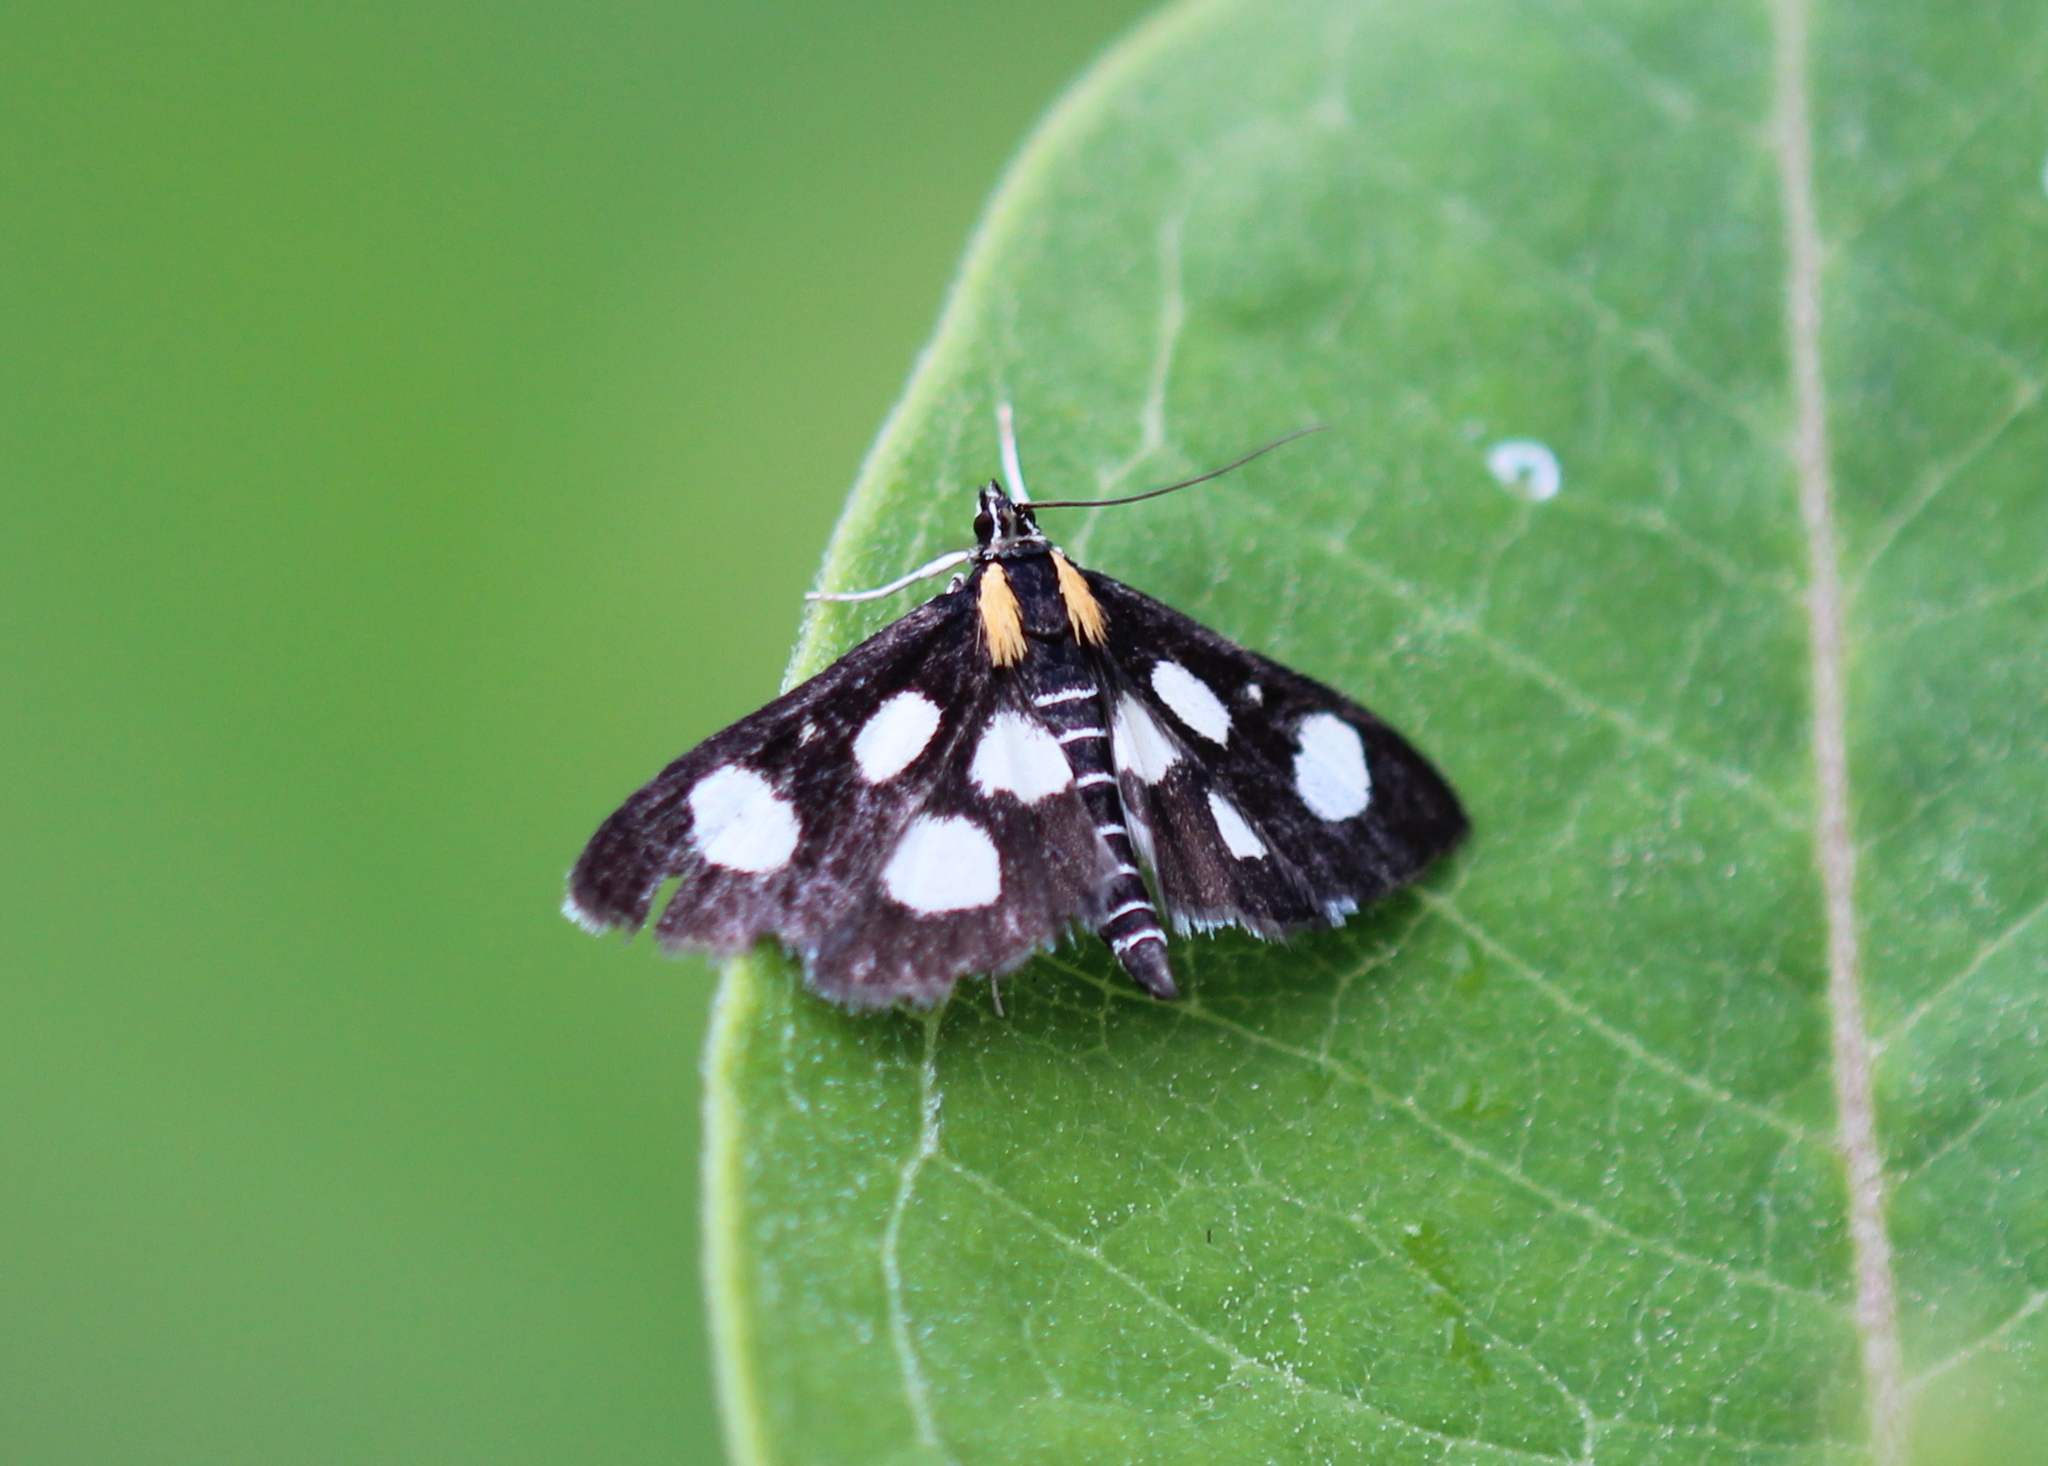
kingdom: Animalia
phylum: Arthropoda
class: Insecta
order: Lepidoptera
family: Crambidae
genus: Anania
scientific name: Anania funebris
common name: White-spotted sable moth
